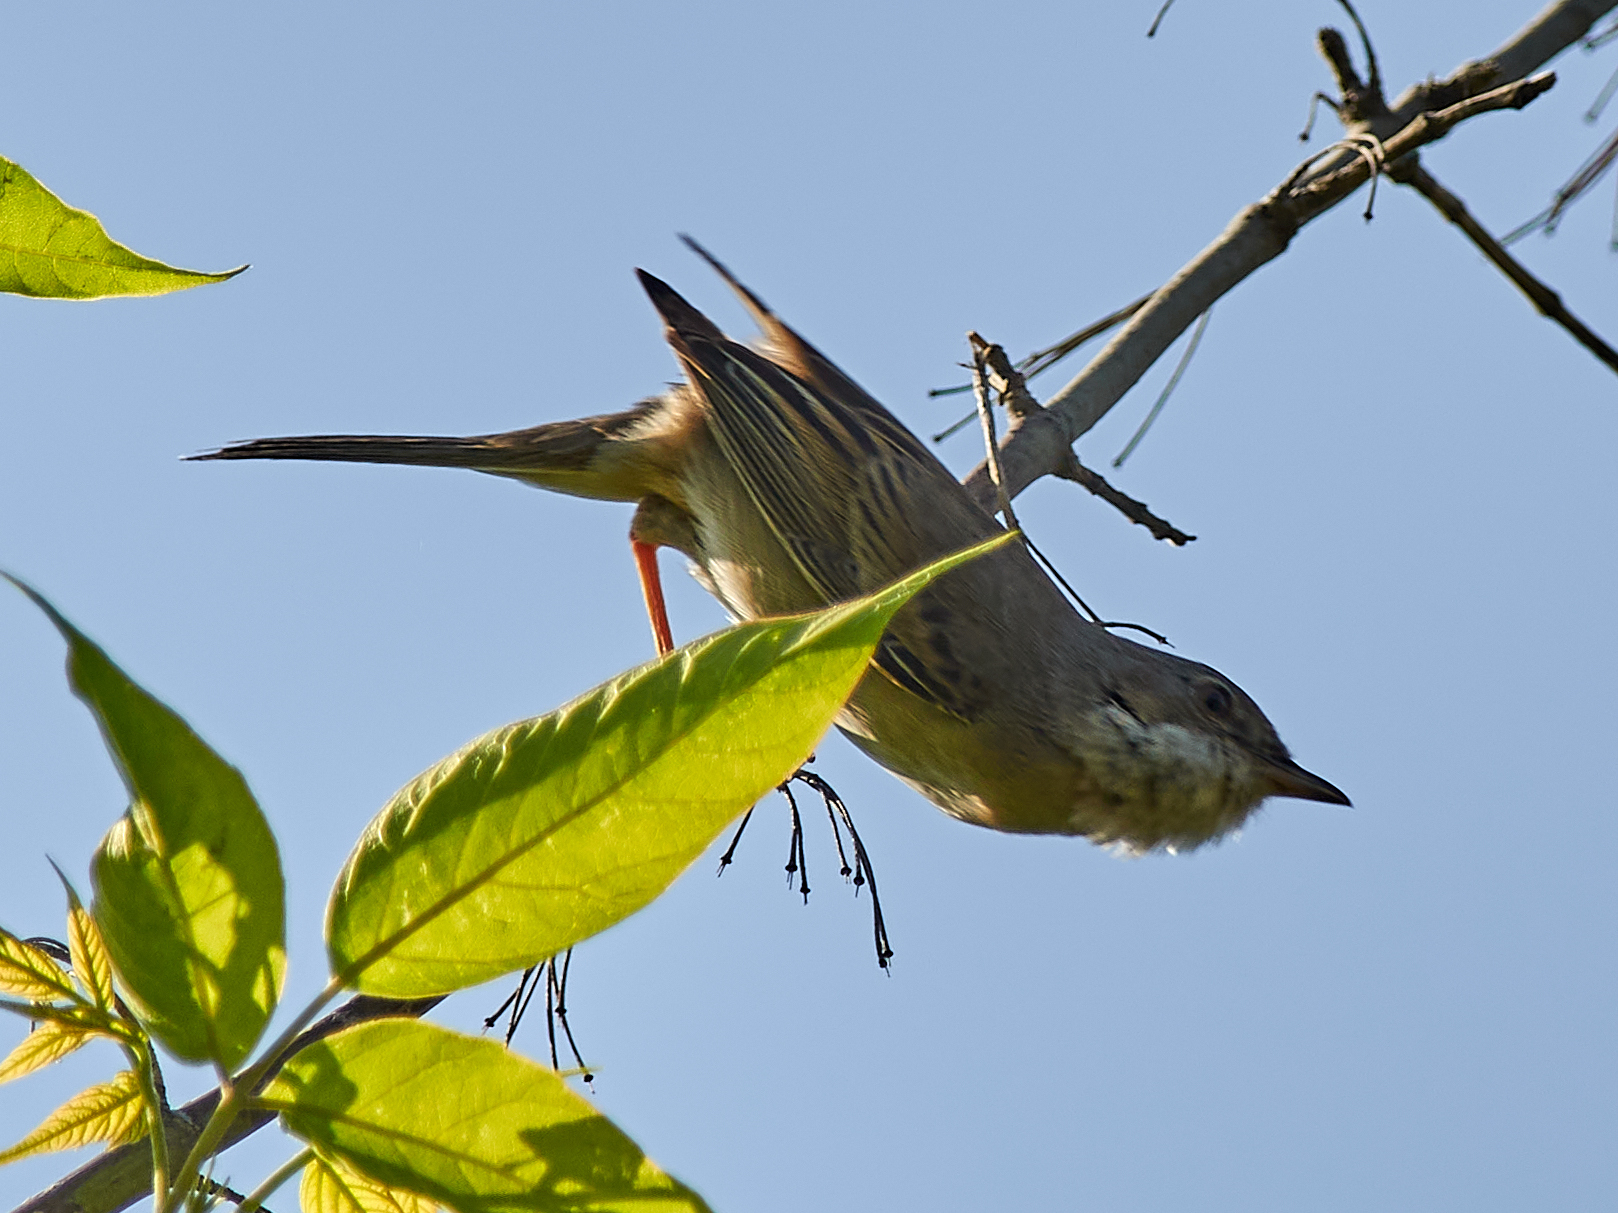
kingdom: Animalia
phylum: Chordata
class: Aves
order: Passeriformes
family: Sylviidae
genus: Sylvia
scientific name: Sylvia communis
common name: Common whitethroat
